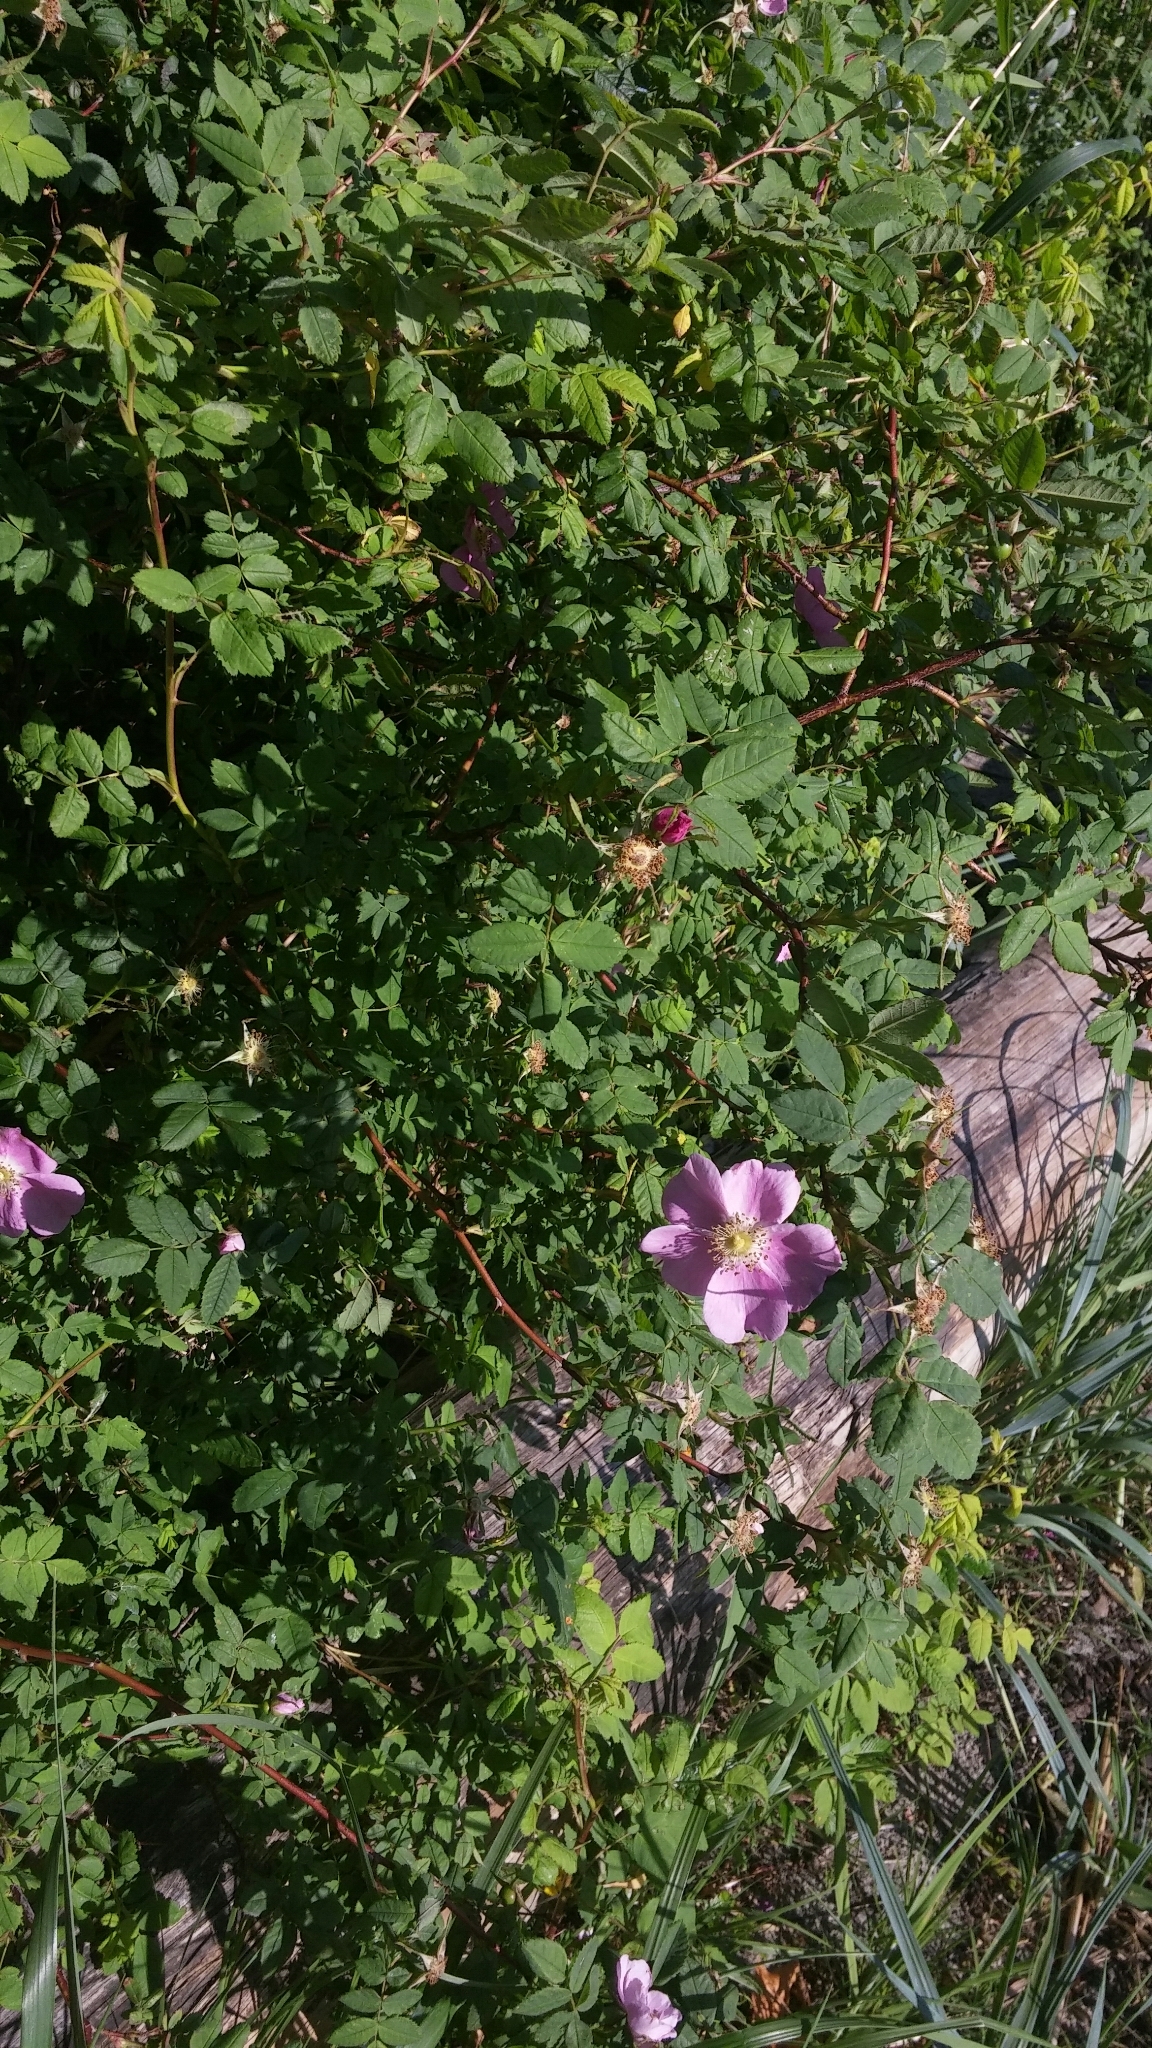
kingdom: Plantae
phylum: Tracheophyta
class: Magnoliopsida
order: Rosales
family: Rosaceae
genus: Rosa
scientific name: Rosa nutkana
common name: Nootka rose
